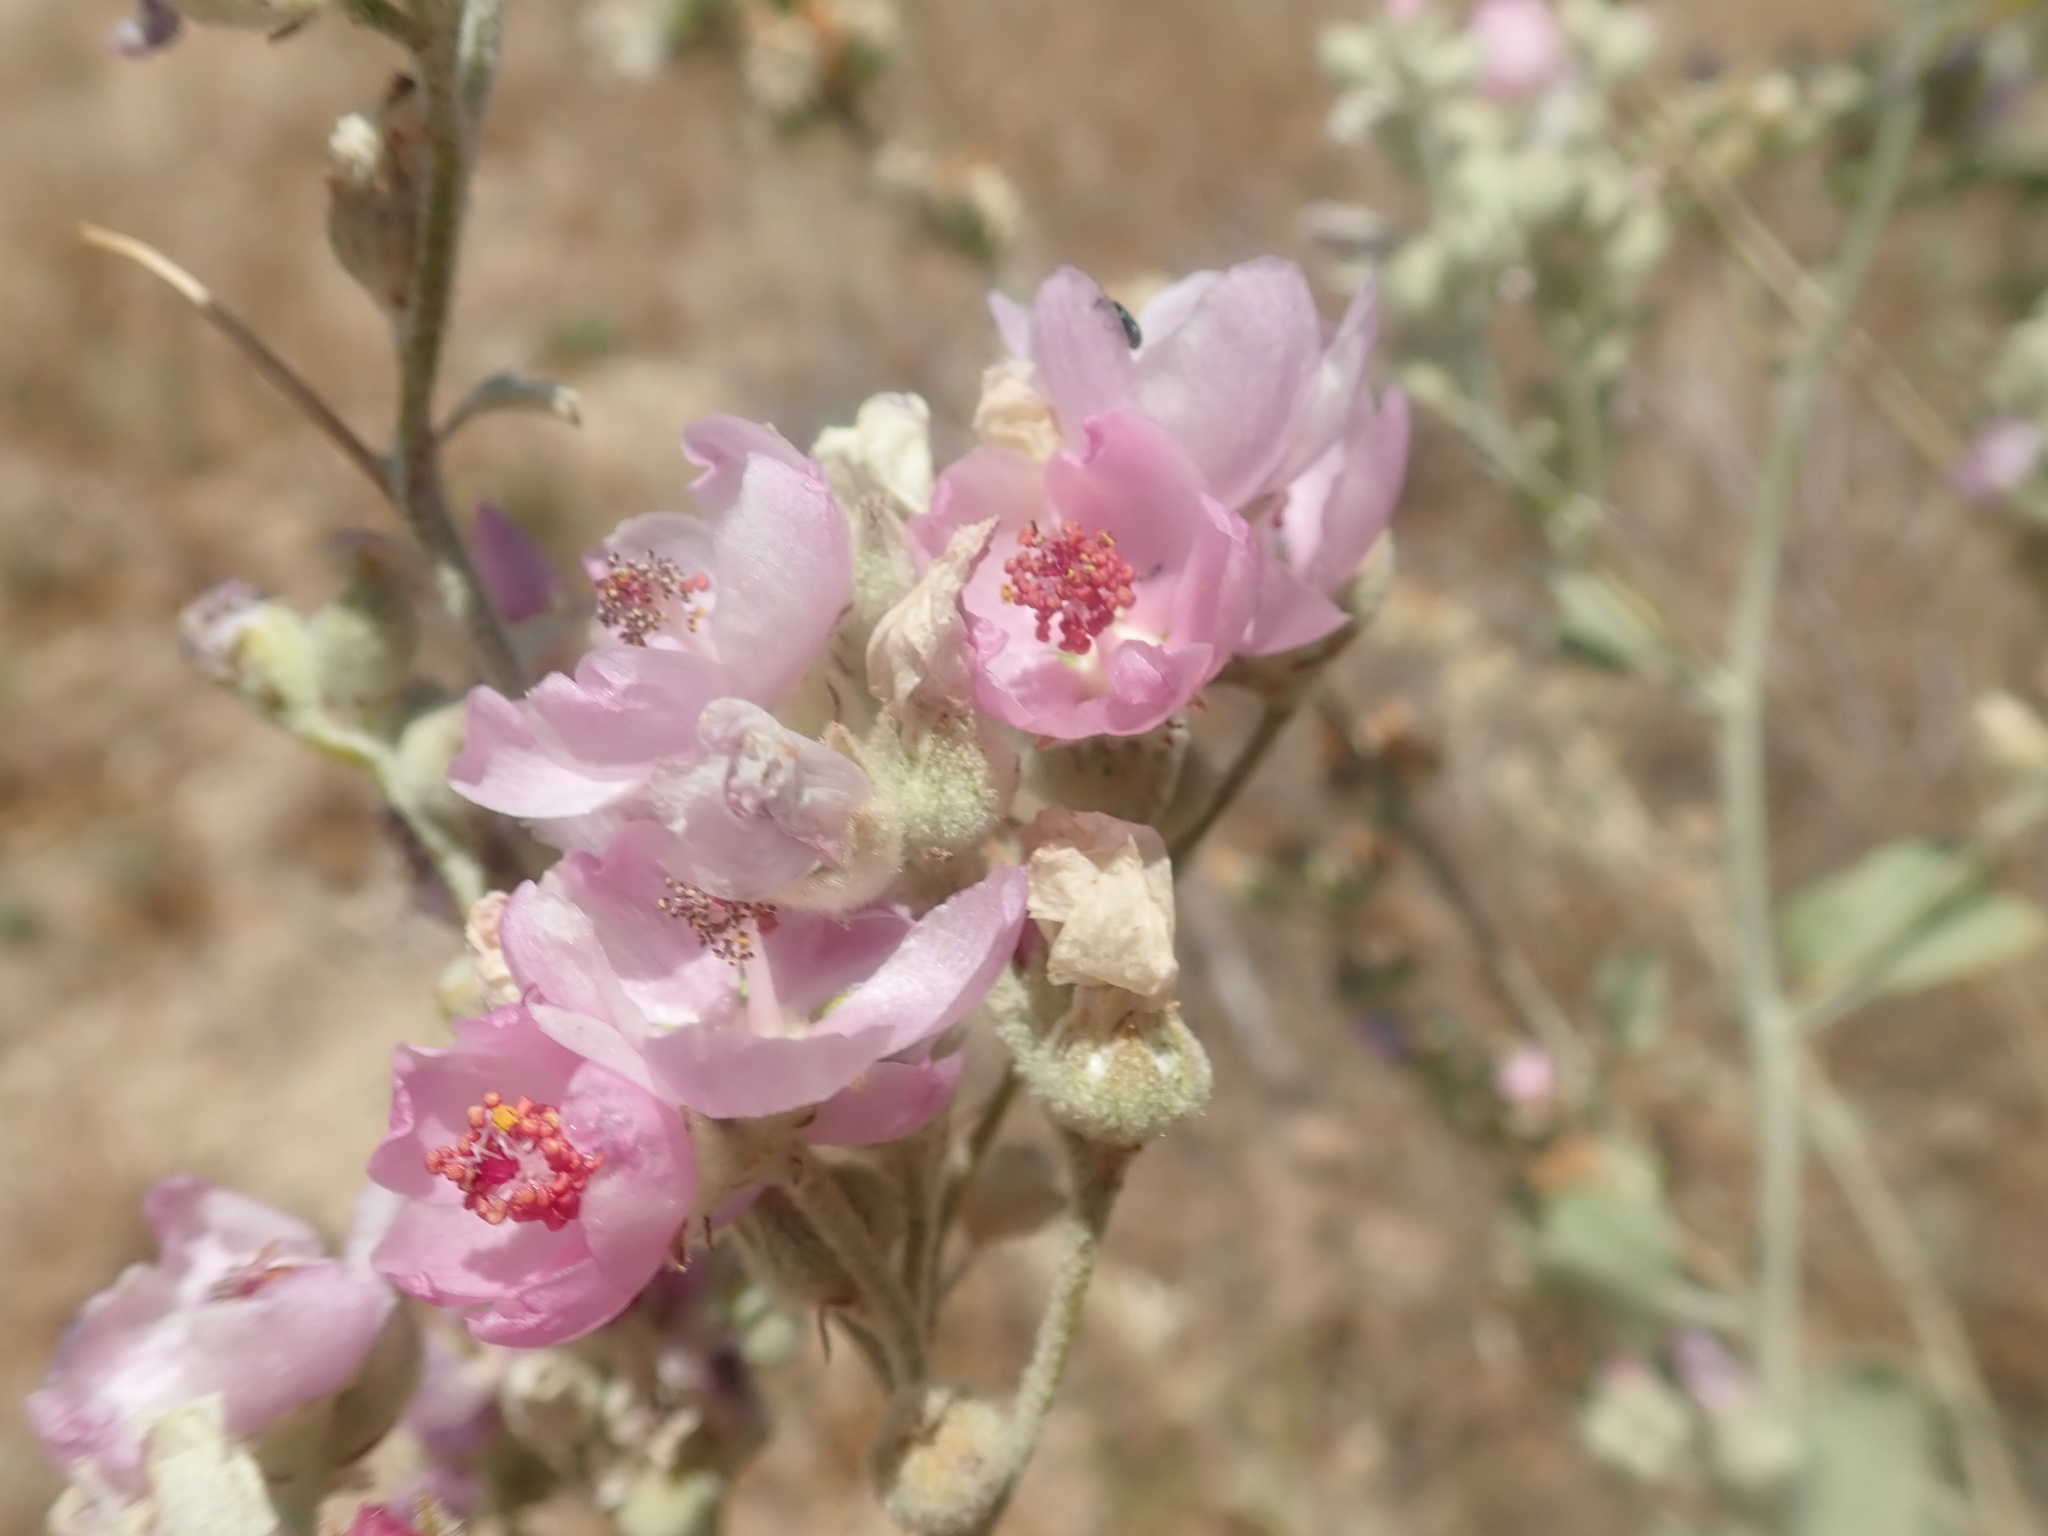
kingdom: Plantae
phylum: Tracheophyta
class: Magnoliopsida
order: Malvales
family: Malvaceae
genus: Malacothamnus
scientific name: Malacothamnus fasciculatus
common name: Sant cruz island bush-mallow
